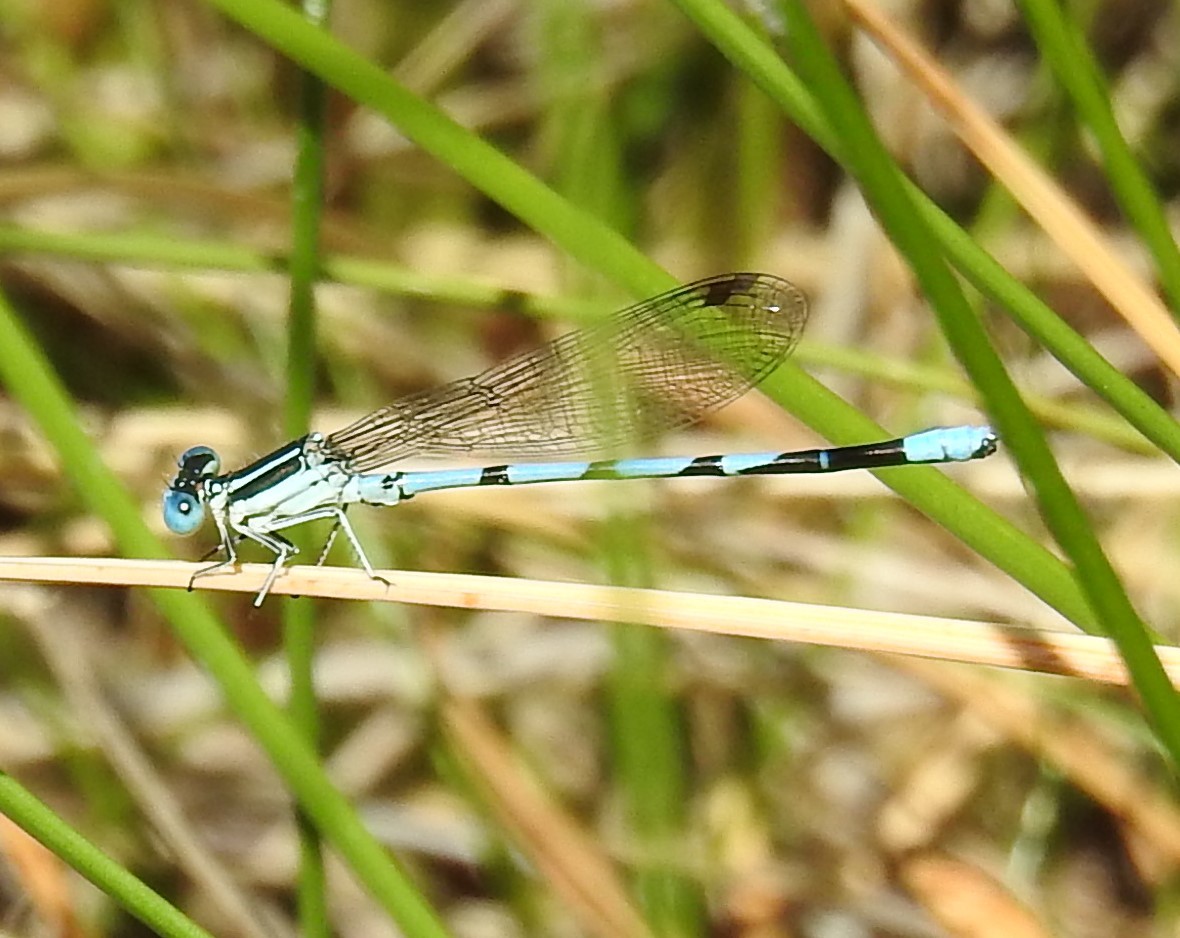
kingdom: Animalia
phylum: Arthropoda
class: Insecta
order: Odonata
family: Coenagrionidae
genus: Argia
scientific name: Argia bipunctulata
